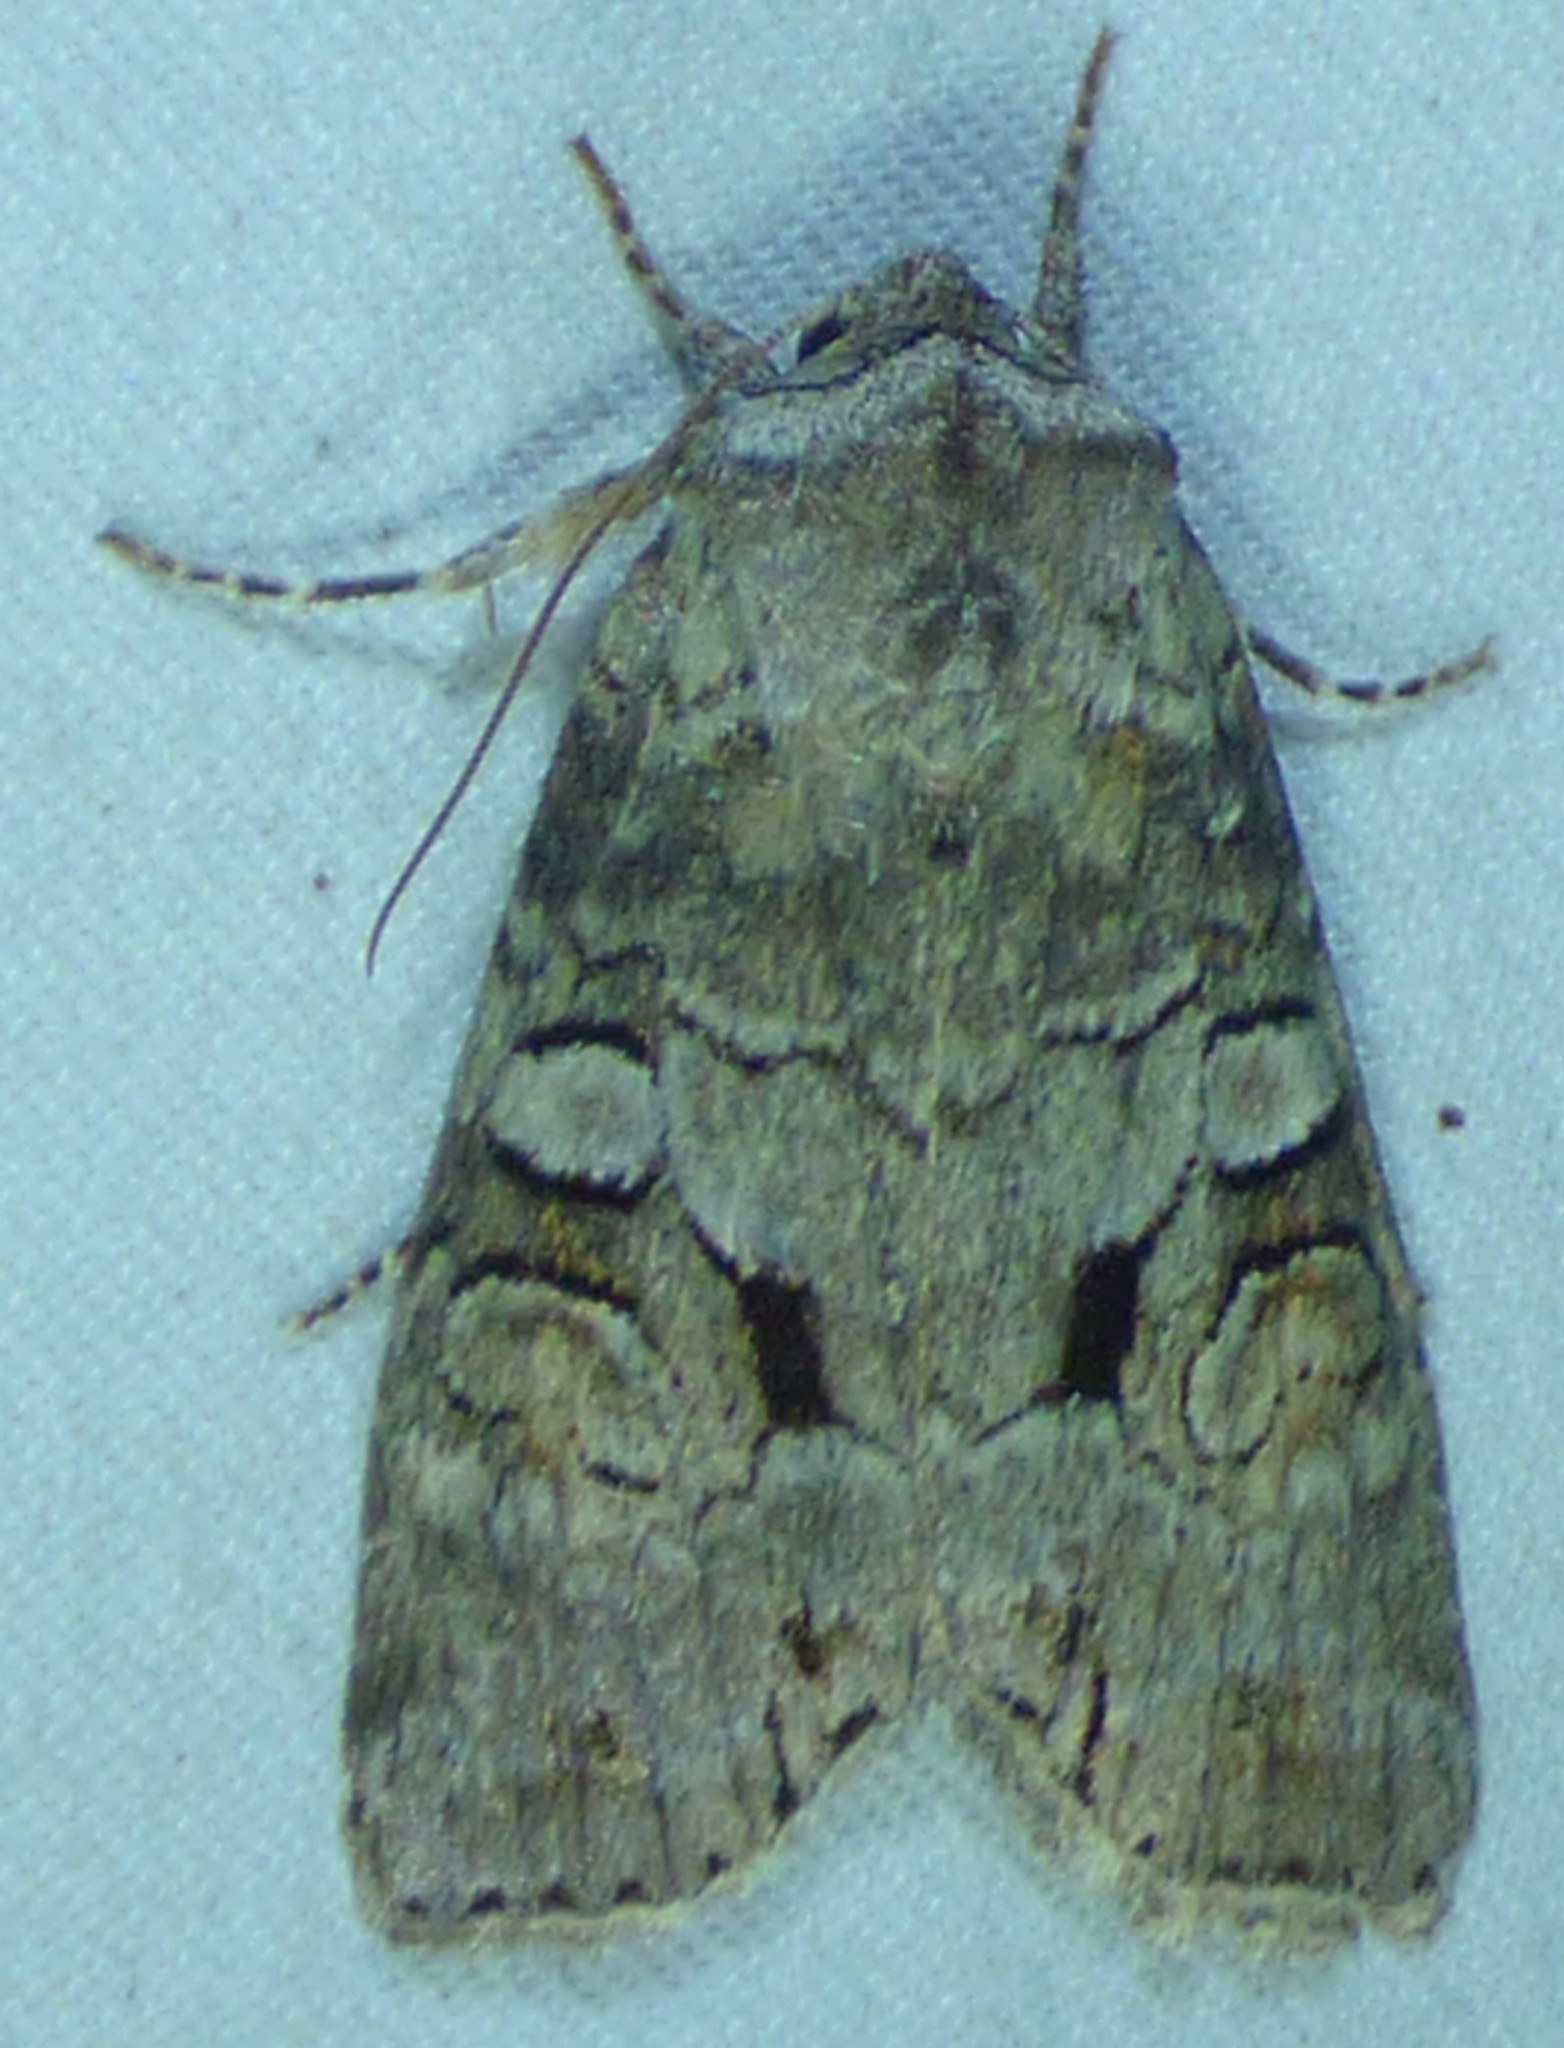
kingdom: Animalia
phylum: Arthropoda
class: Insecta
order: Lepidoptera
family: Noctuidae
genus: Egira
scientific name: Egira alternans
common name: Alternate woodling
